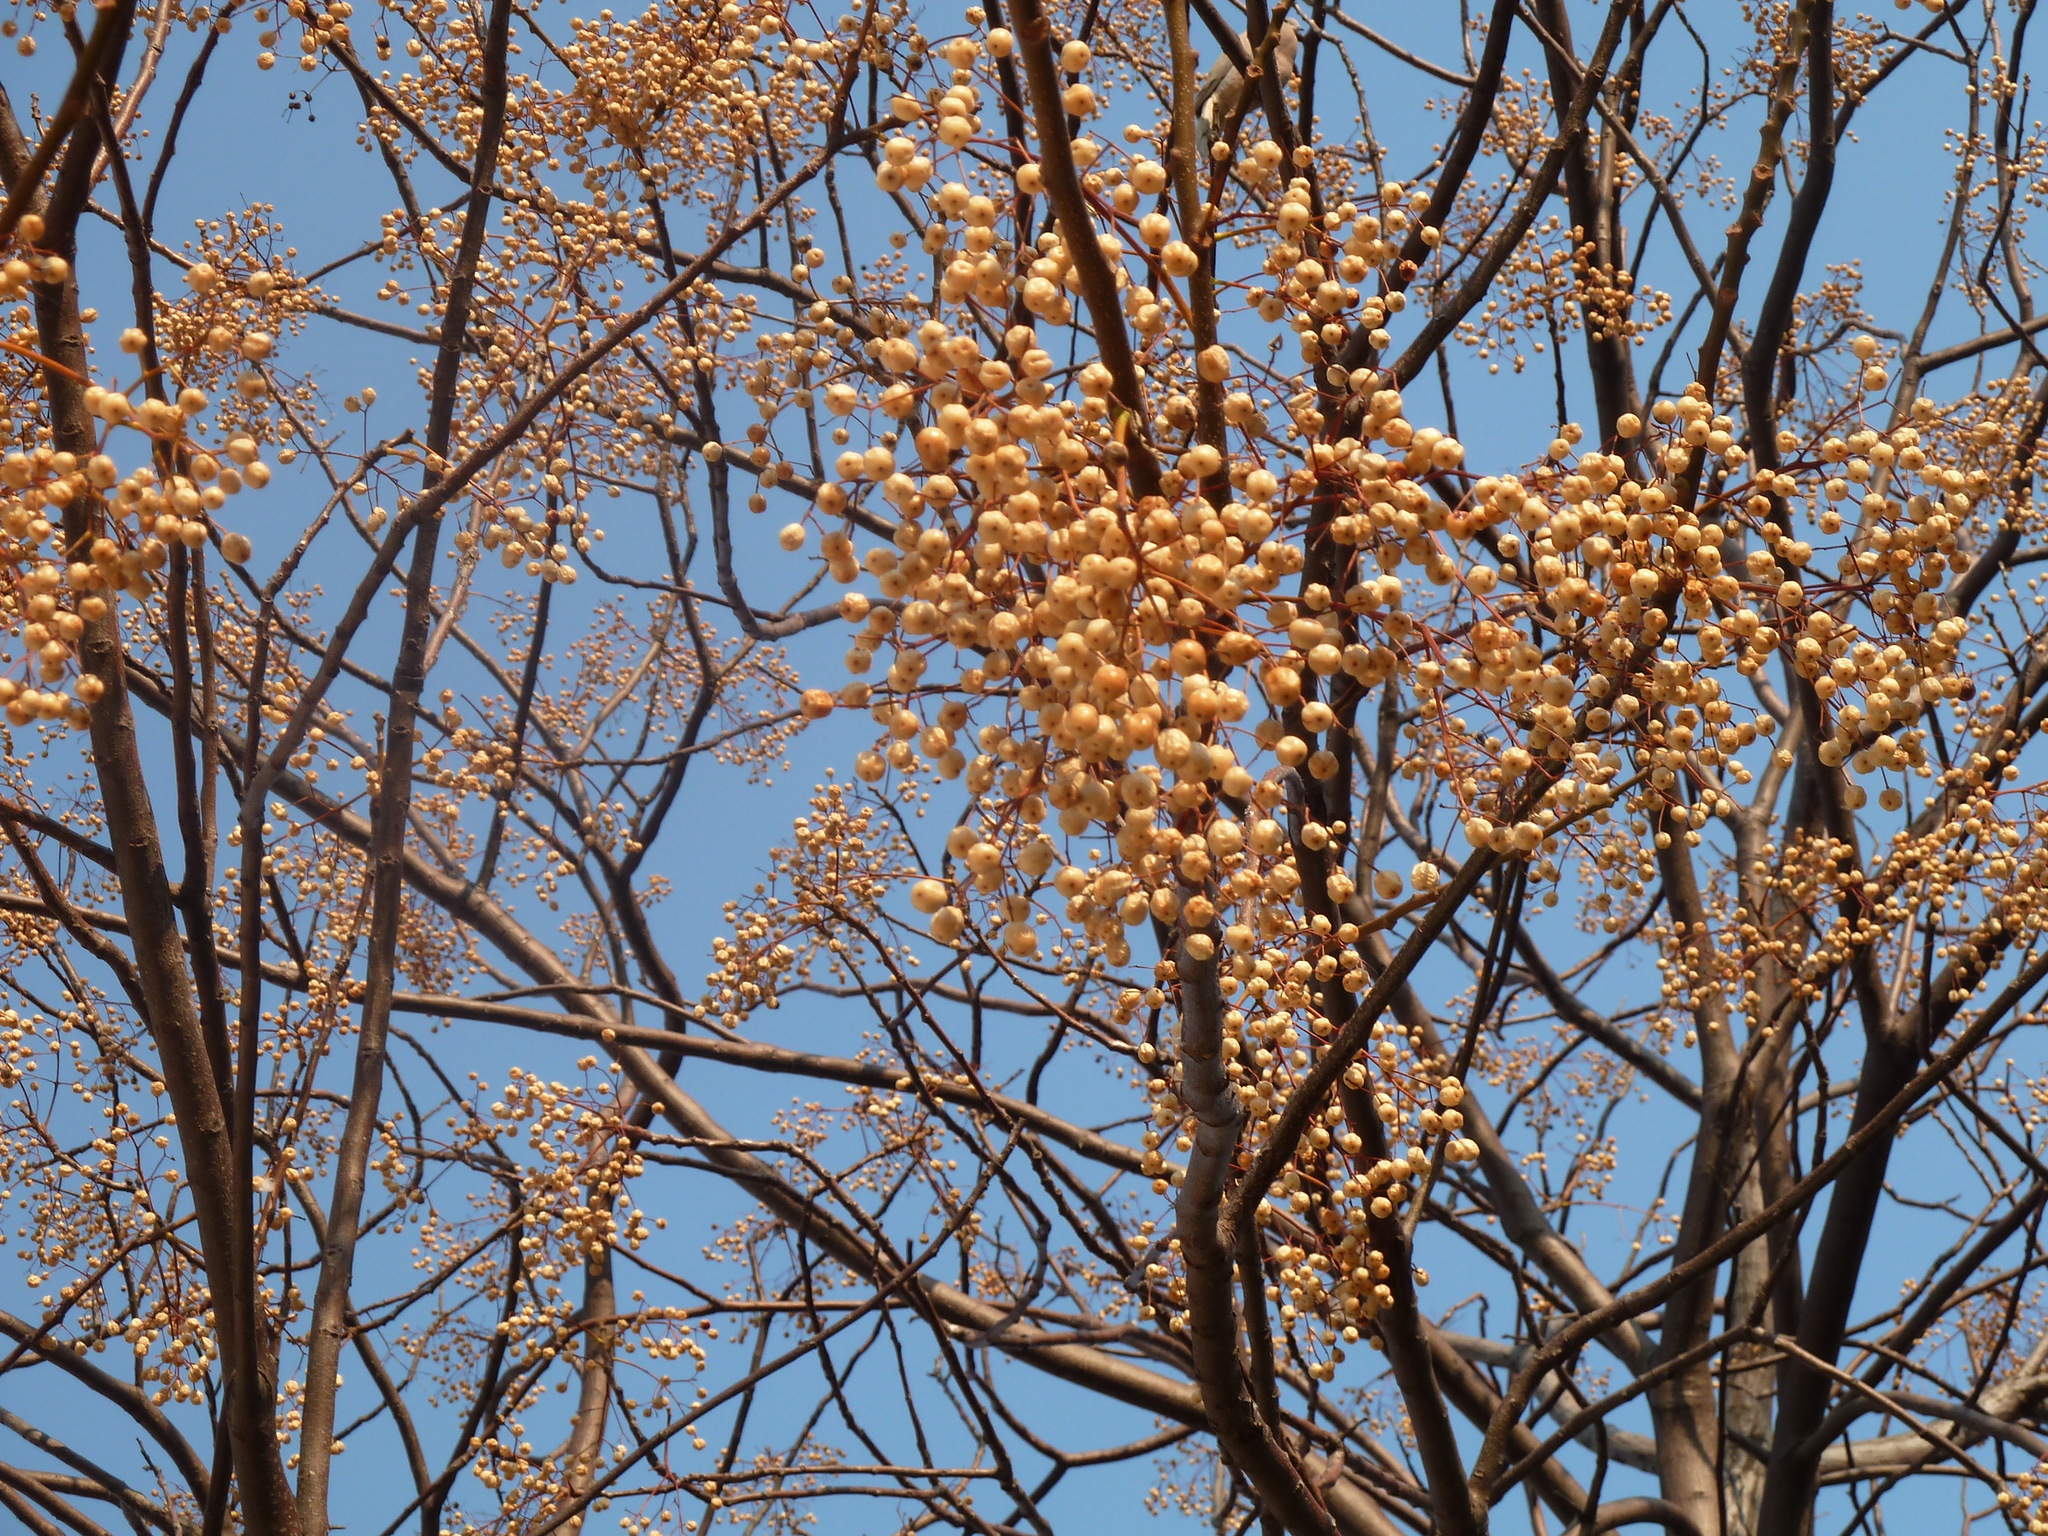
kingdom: Plantae
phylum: Tracheophyta
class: Magnoliopsida
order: Sapindales
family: Meliaceae
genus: Melia
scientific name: Melia azedarach
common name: Chinaberrytree
